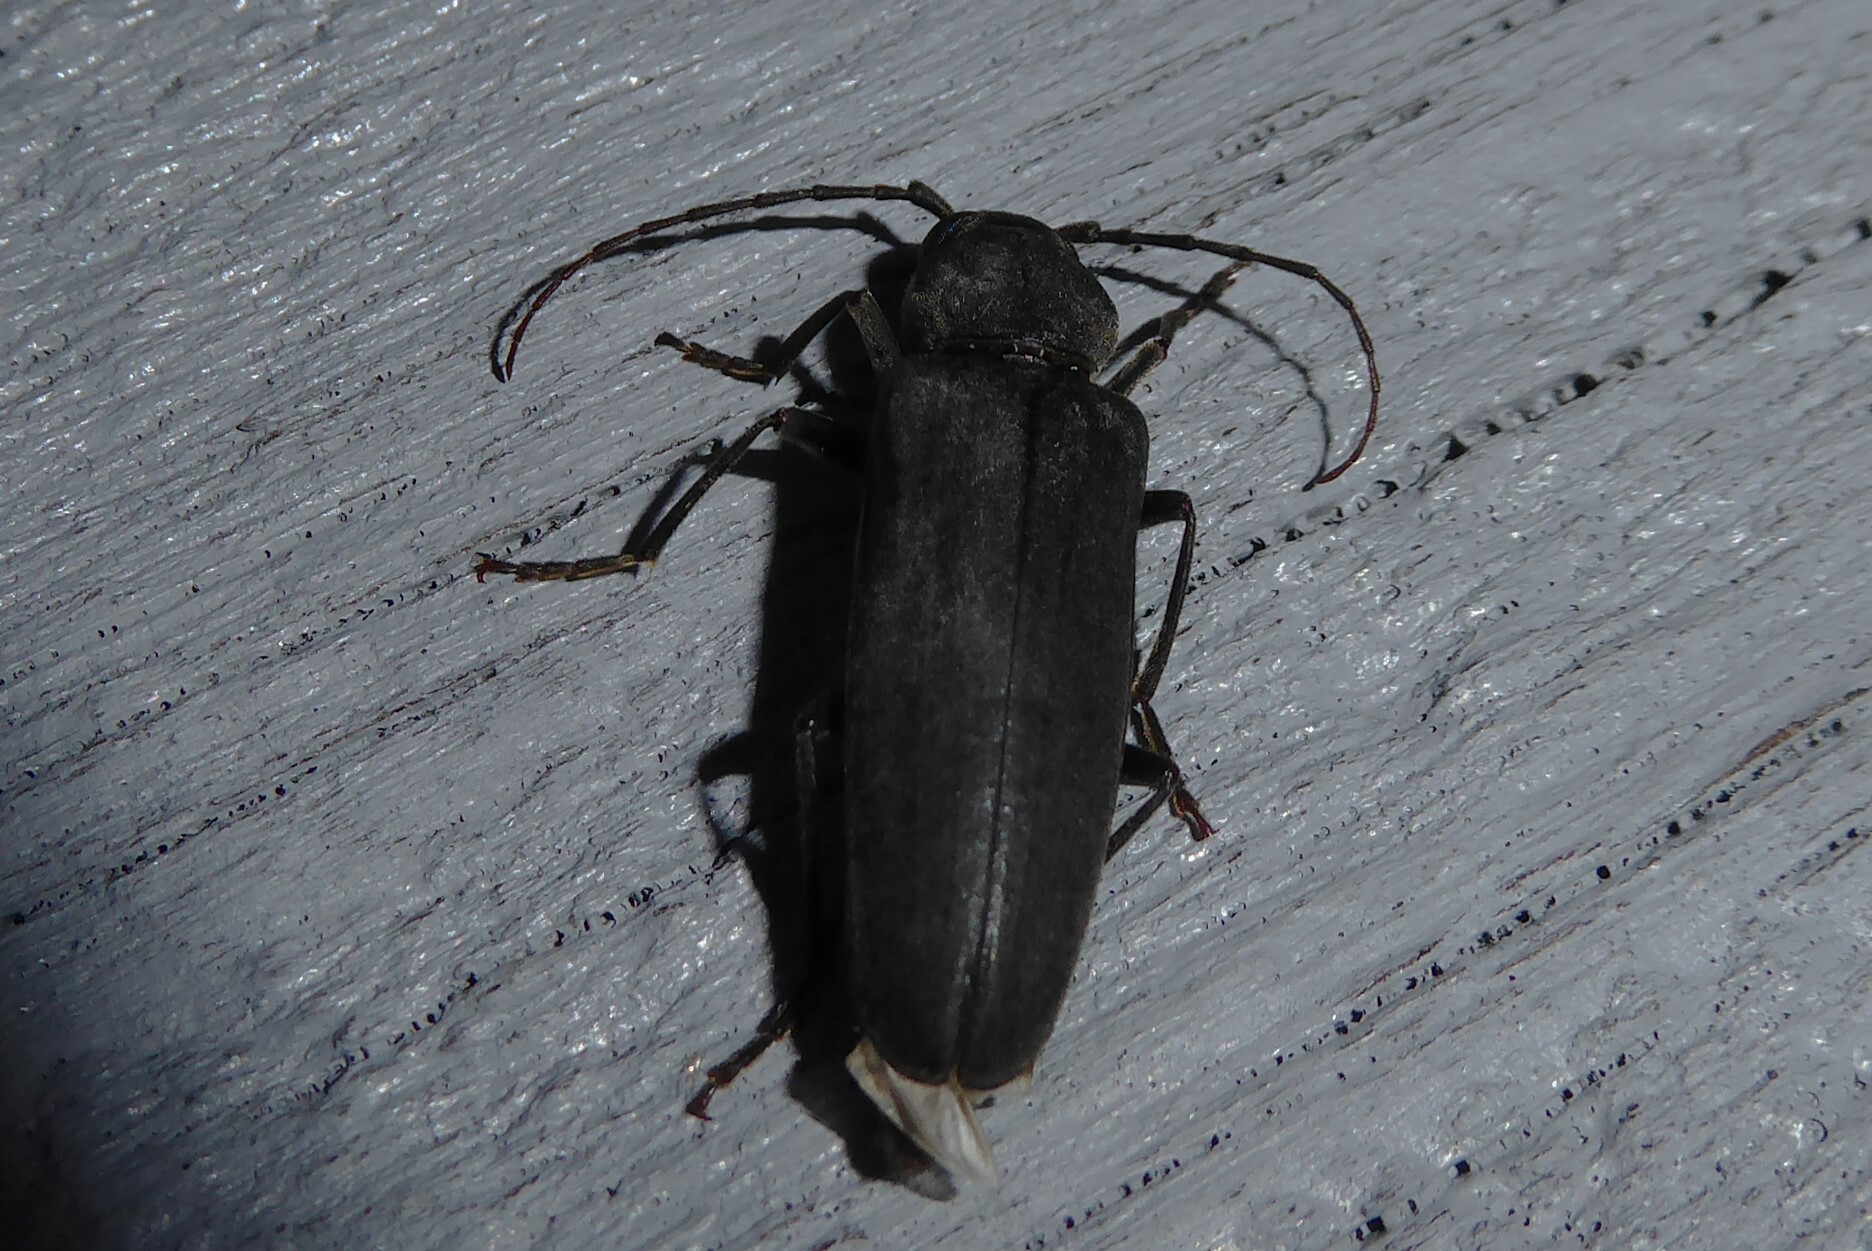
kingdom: Animalia
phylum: Arthropoda
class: Insecta
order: Coleoptera
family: Cerambycidae
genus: Arhopalus
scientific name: Arhopalus ferus
